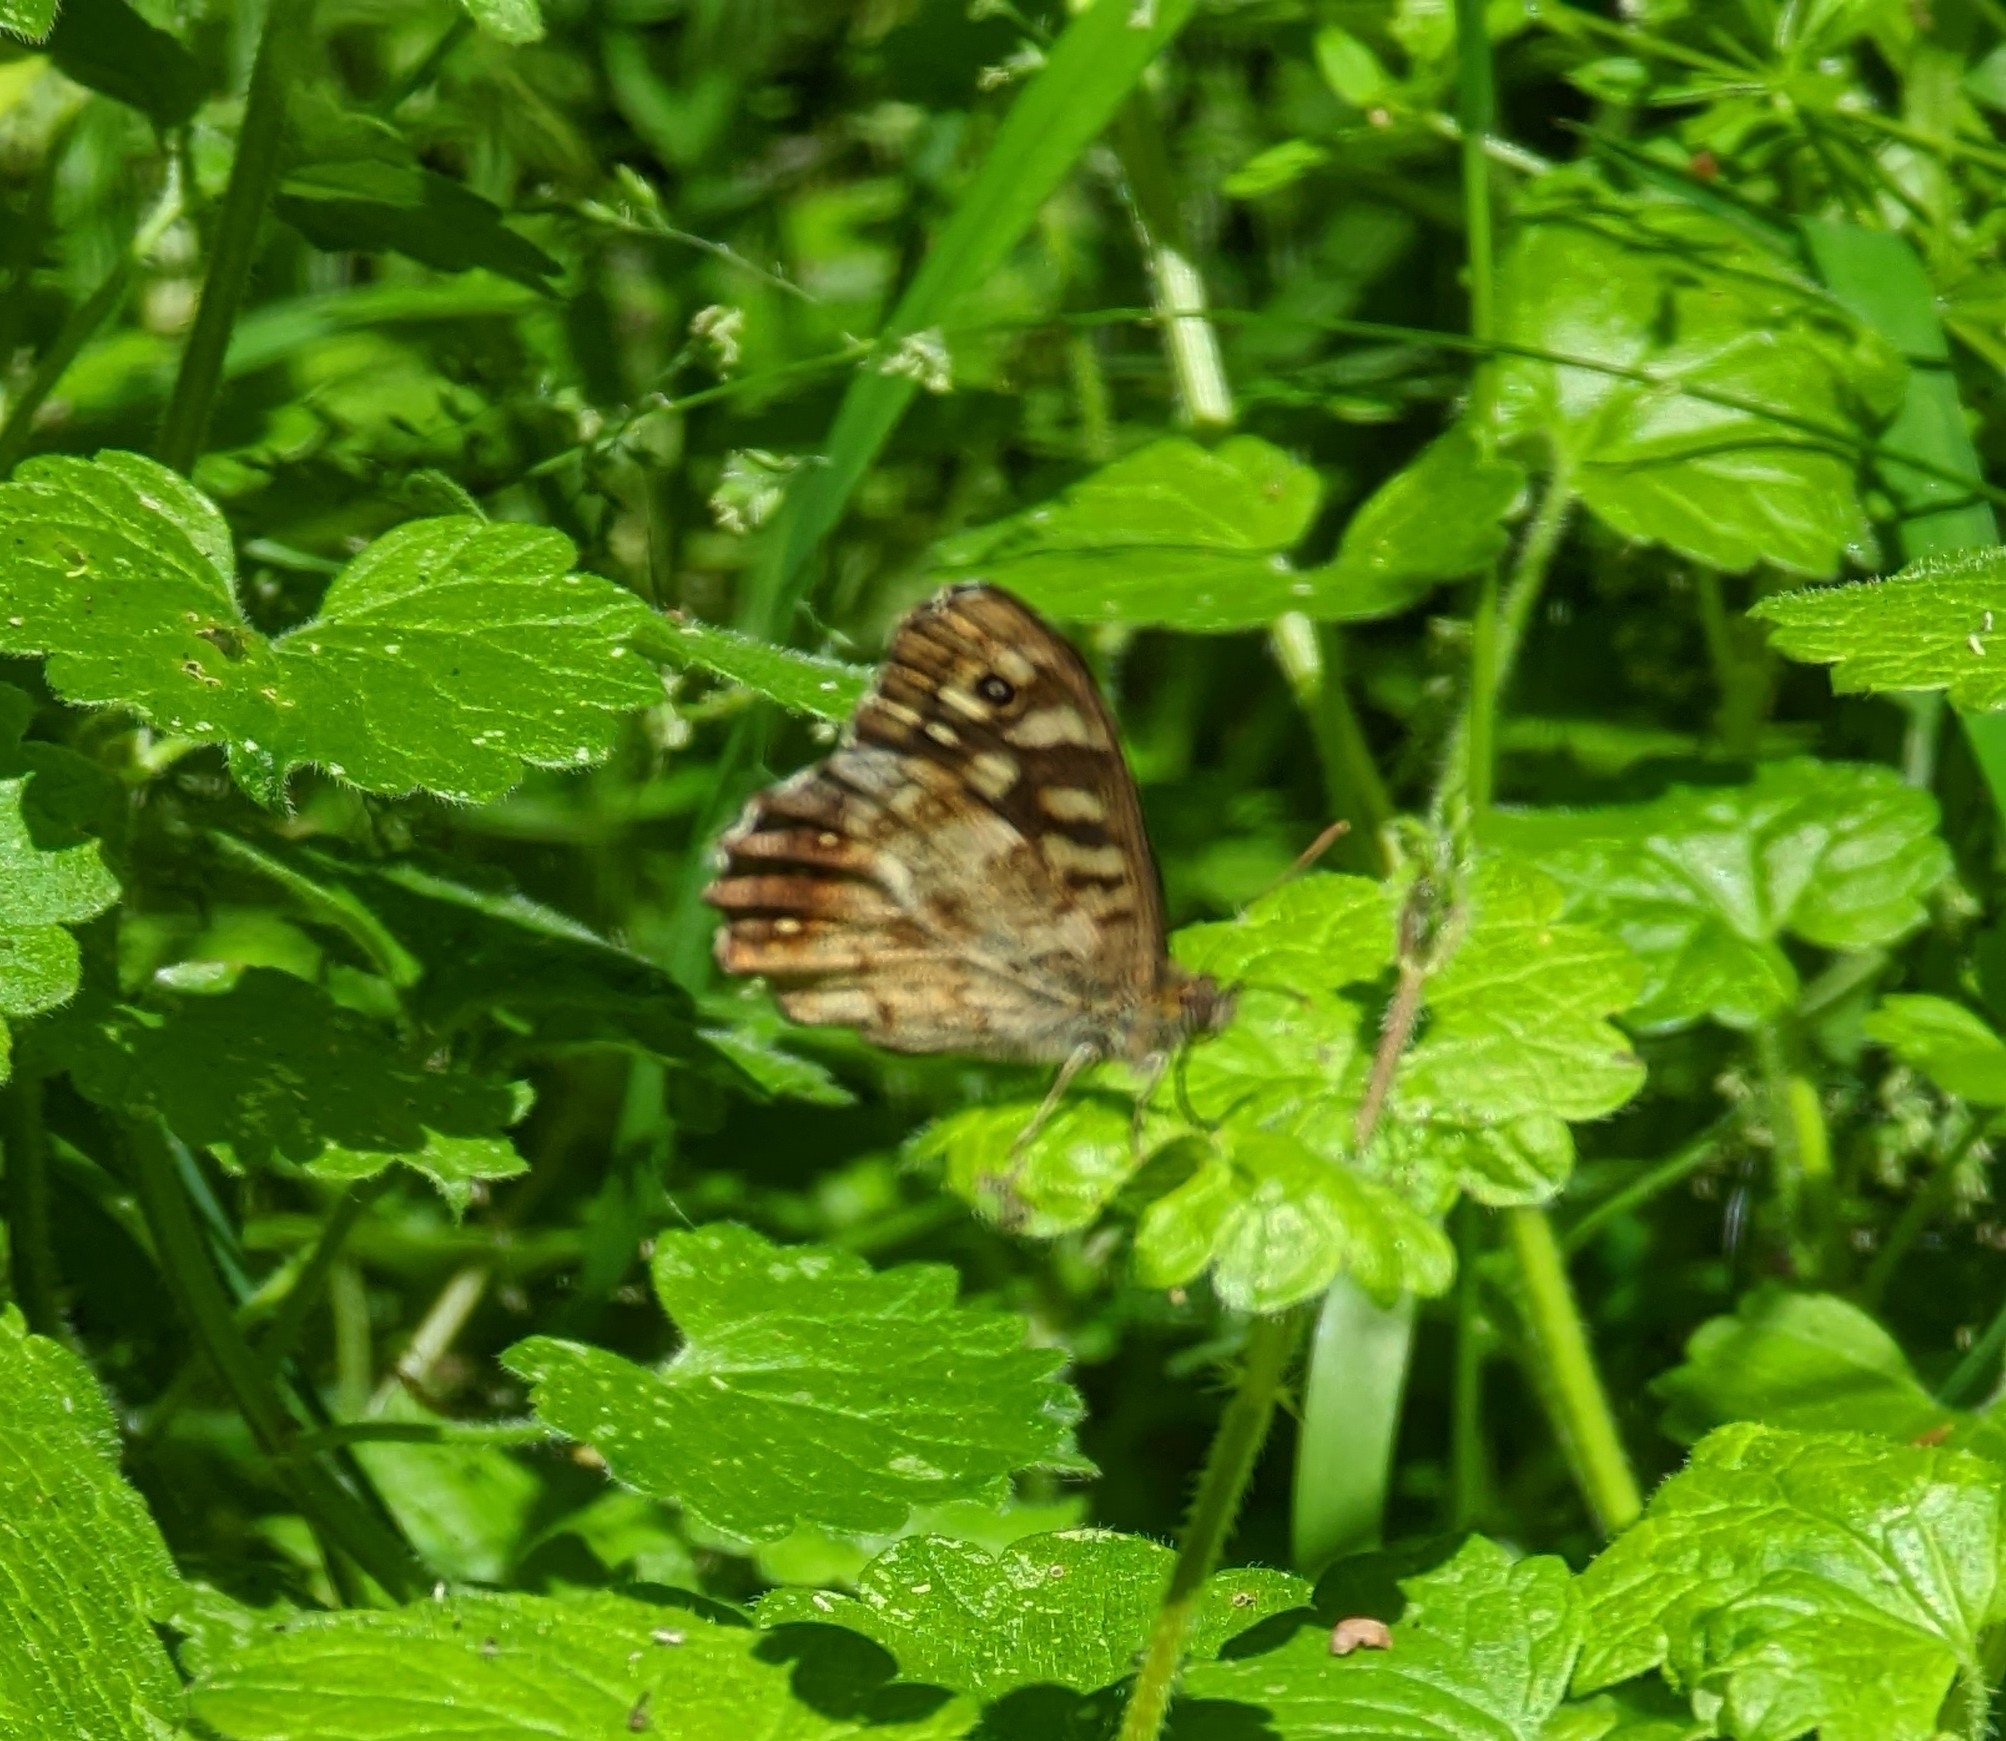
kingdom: Animalia
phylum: Arthropoda
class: Insecta
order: Lepidoptera
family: Nymphalidae
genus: Pararge
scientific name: Pararge aegeria
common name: Speckled wood
